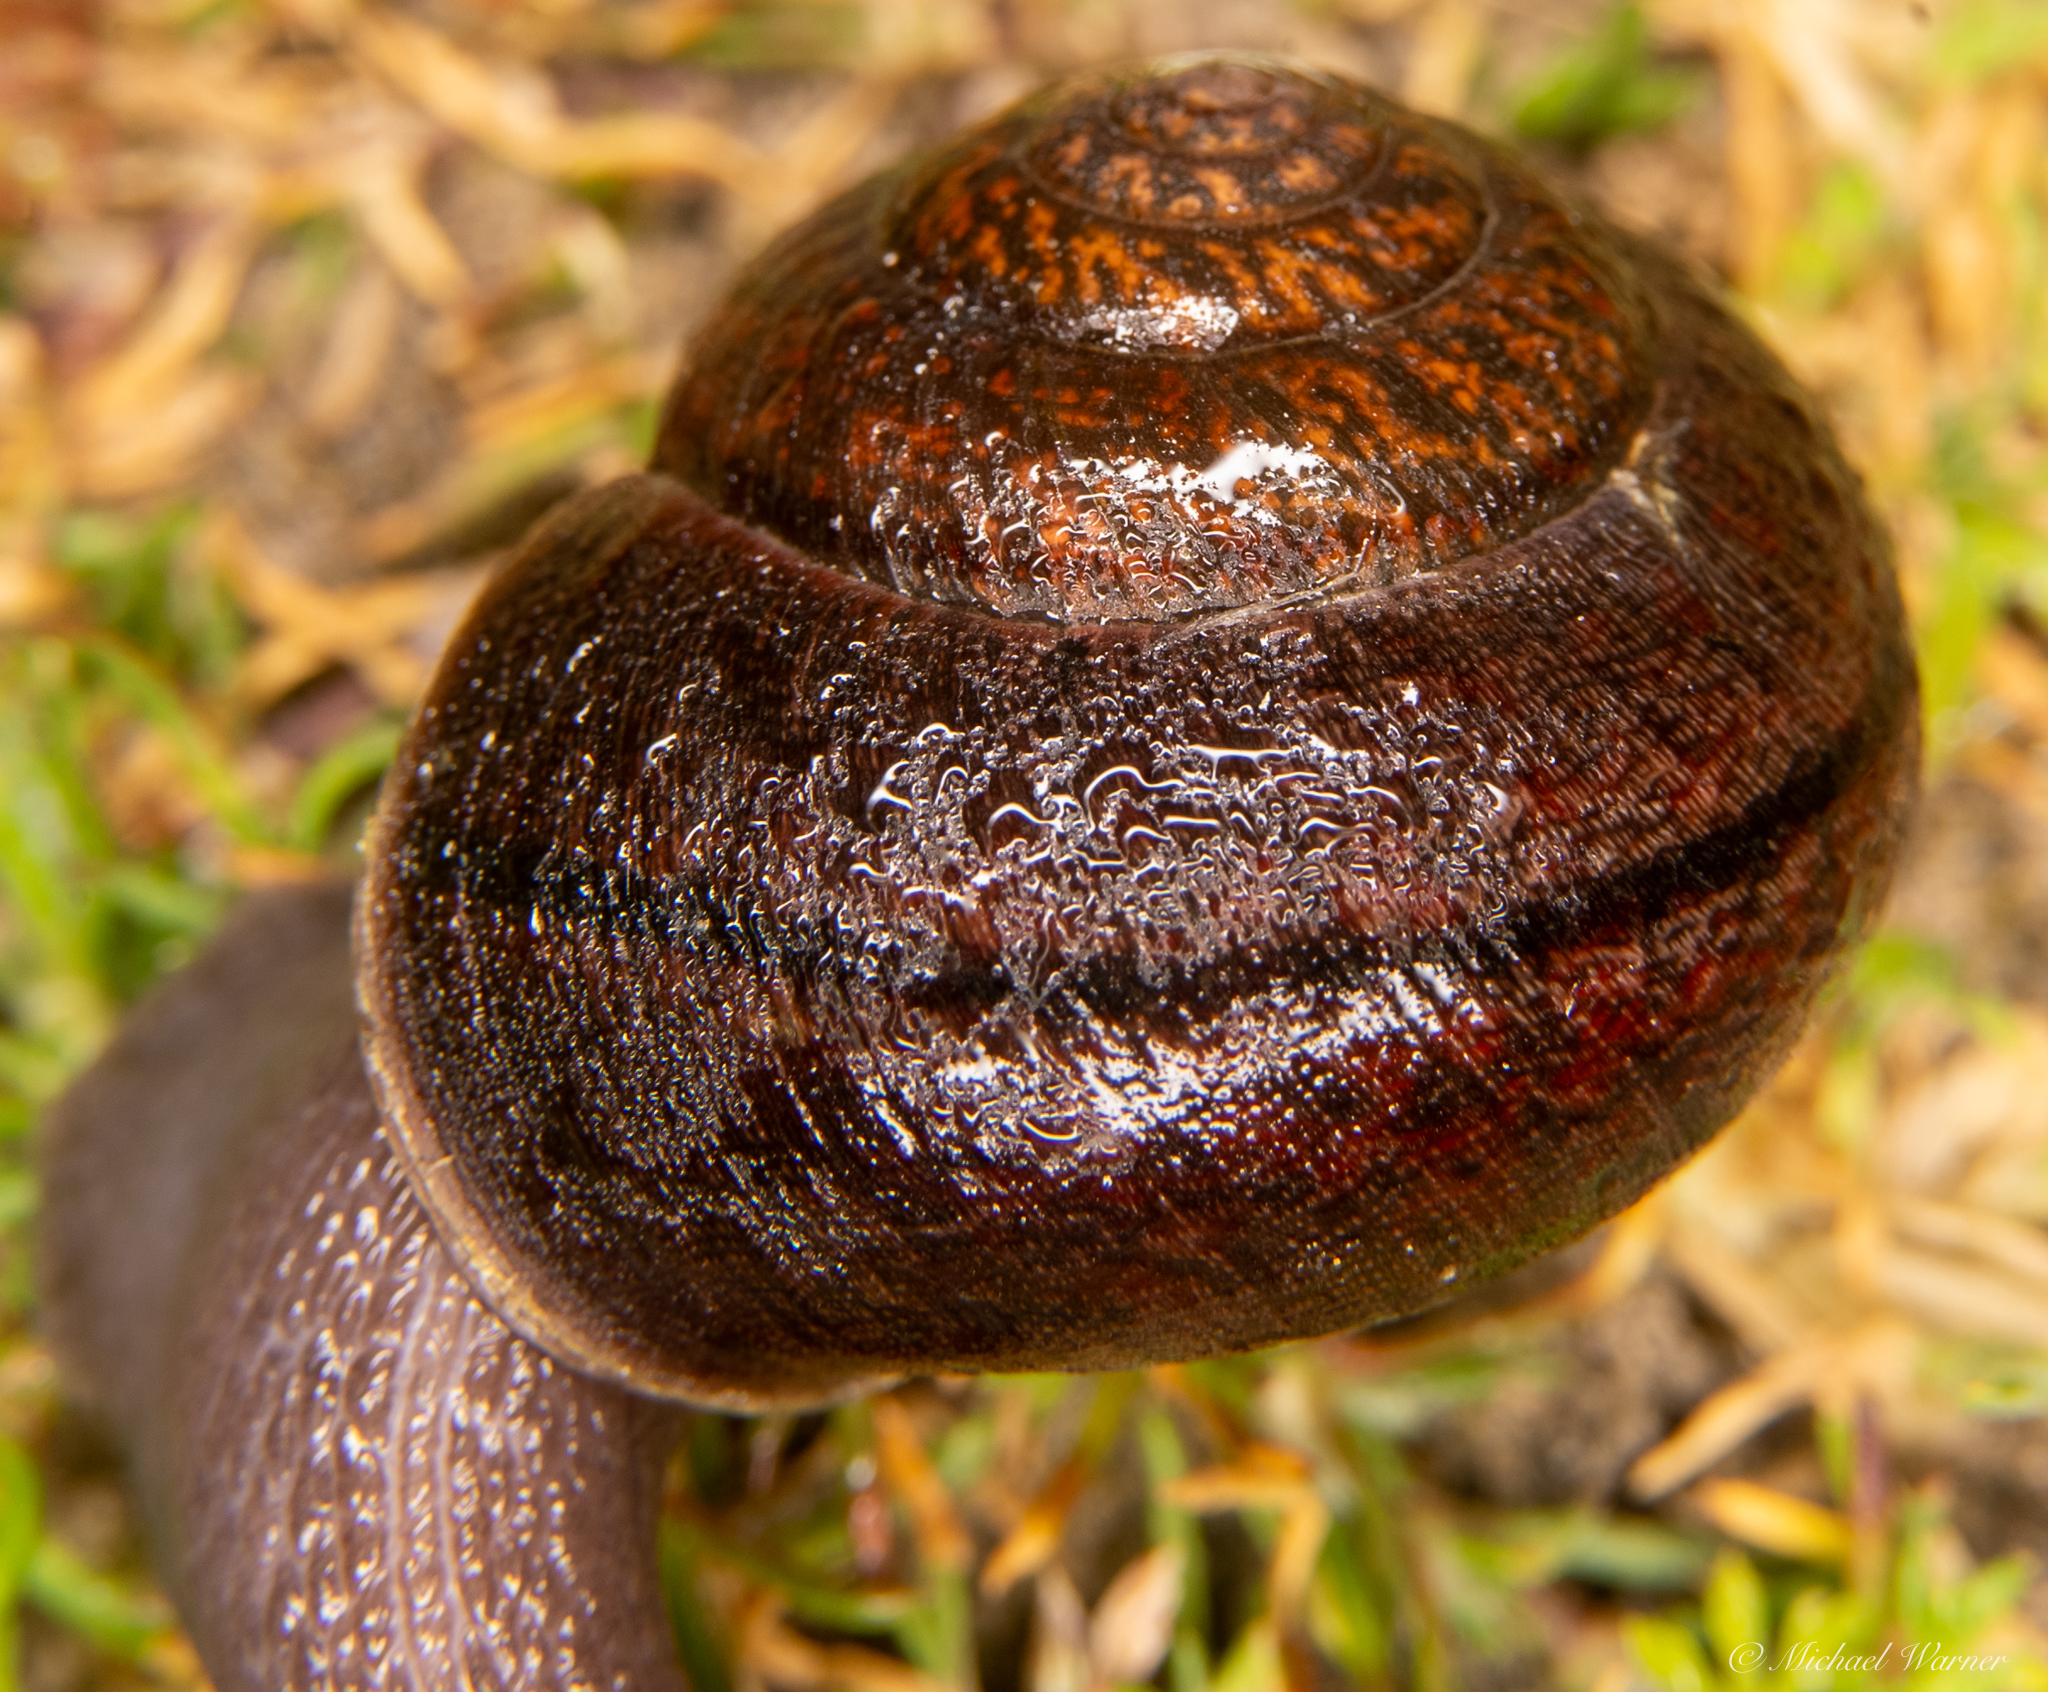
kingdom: Animalia
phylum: Mollusca
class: Gastropoda
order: Stylommatophora
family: Xanthonychidae
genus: Helminthoglypta
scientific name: Helminthoglypta nickliniana
